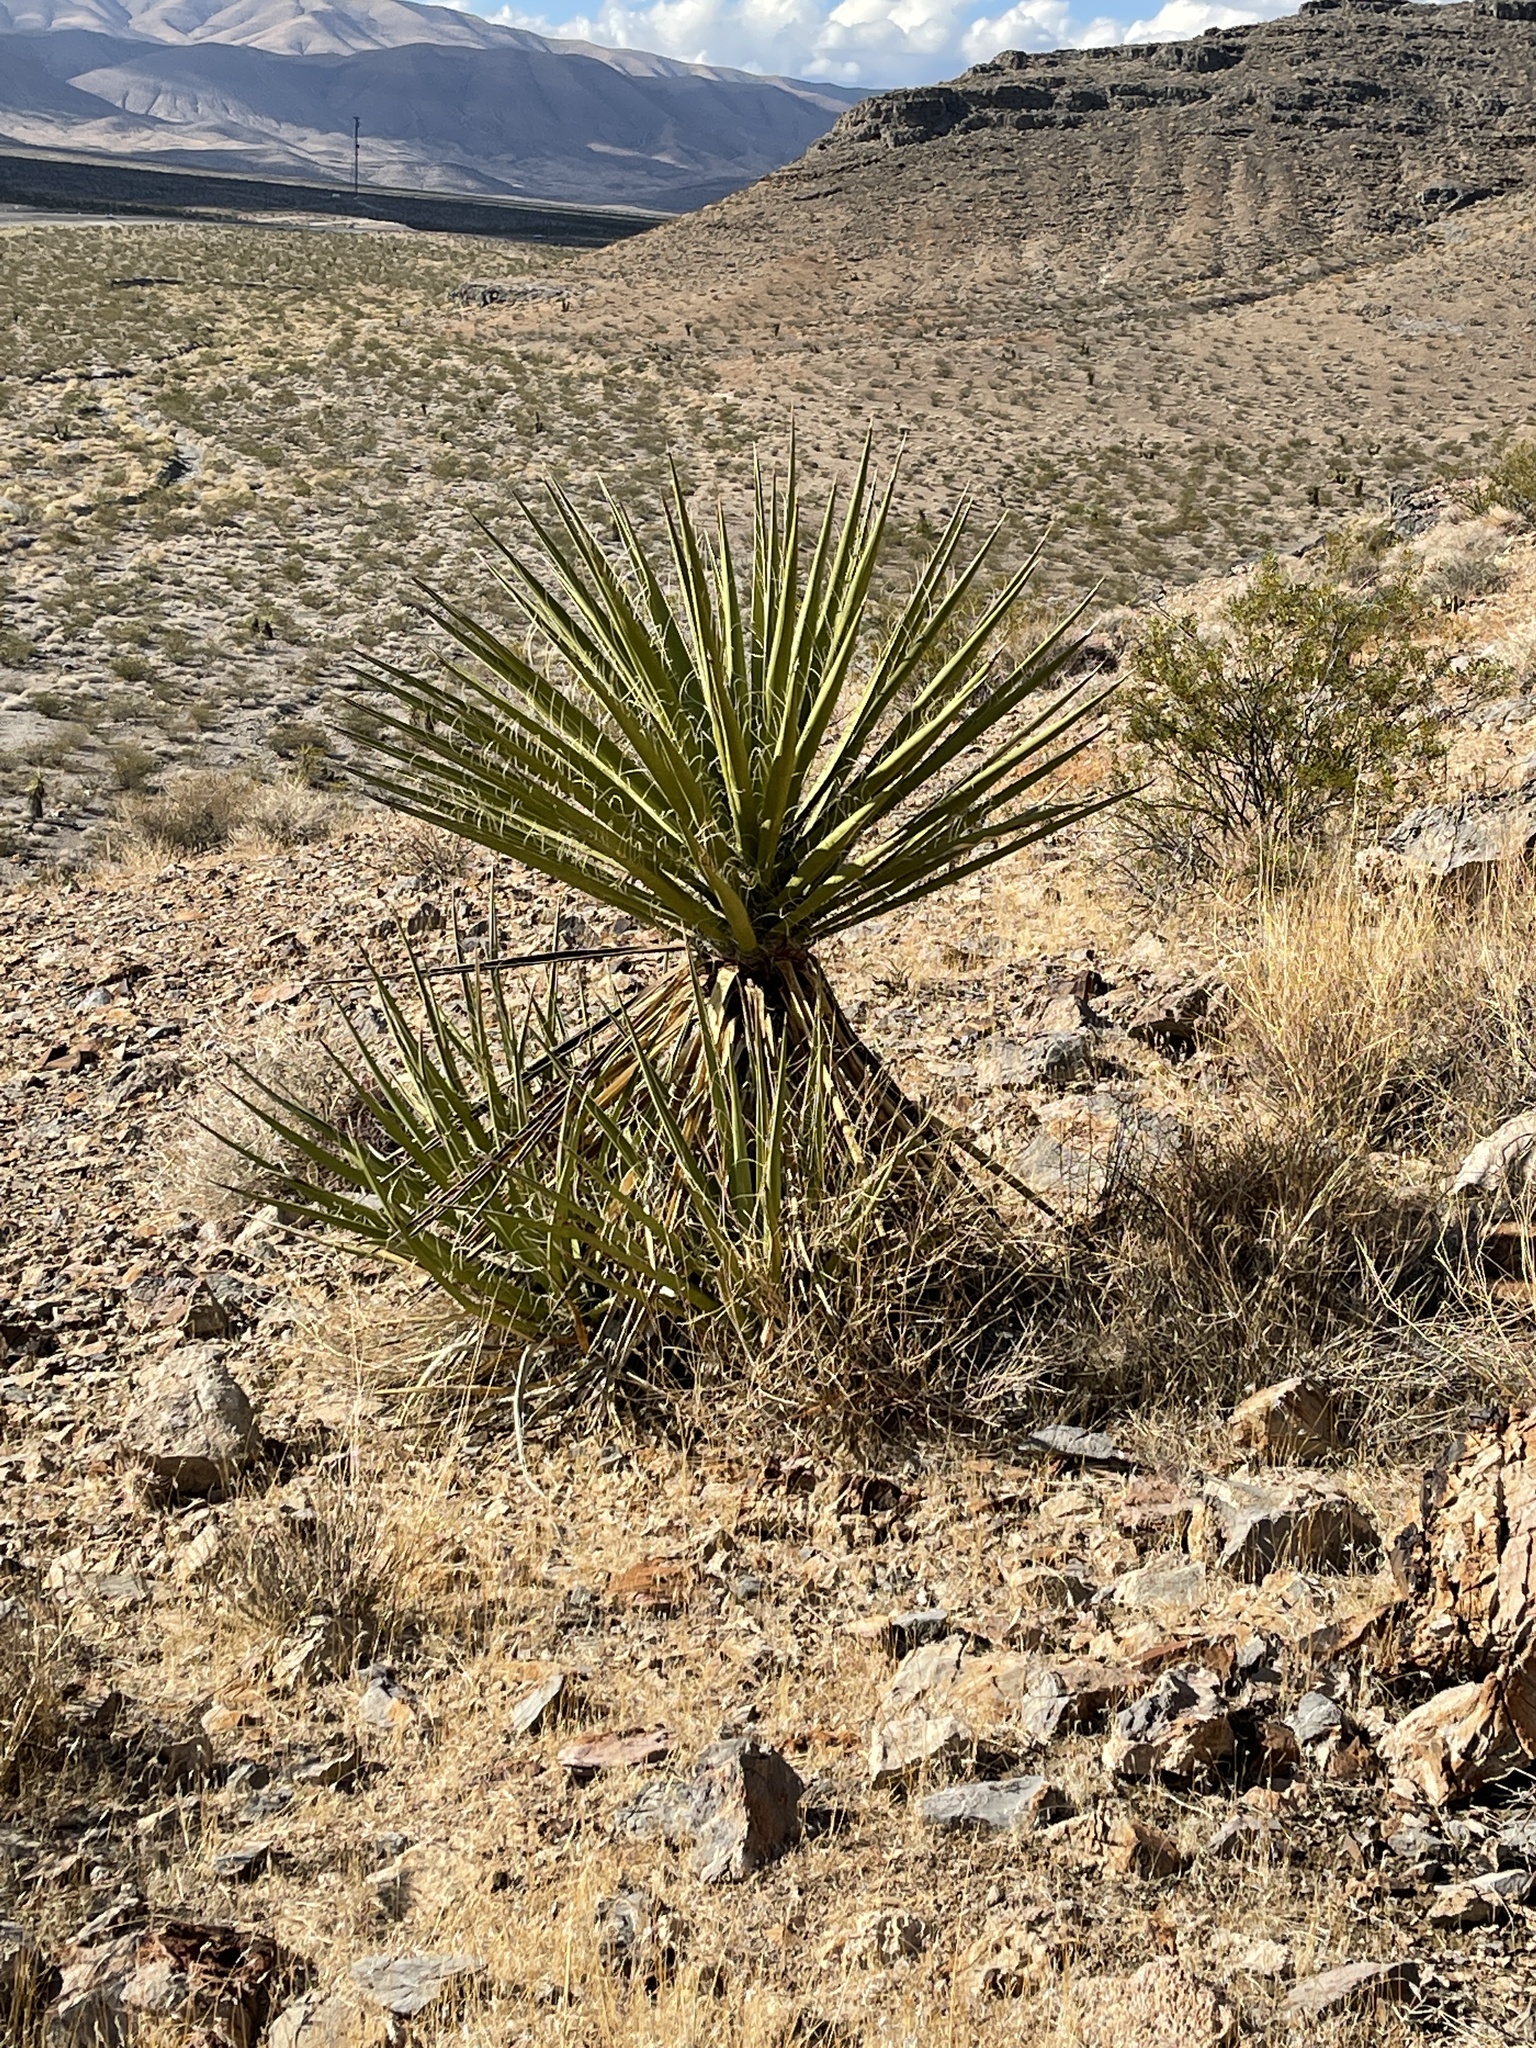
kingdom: Plantae
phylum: Tracheophyta
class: Liliopsida
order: Asparagales
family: Asparagaceae
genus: Yucca
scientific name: Yucca schidigera
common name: Mojave yucca
